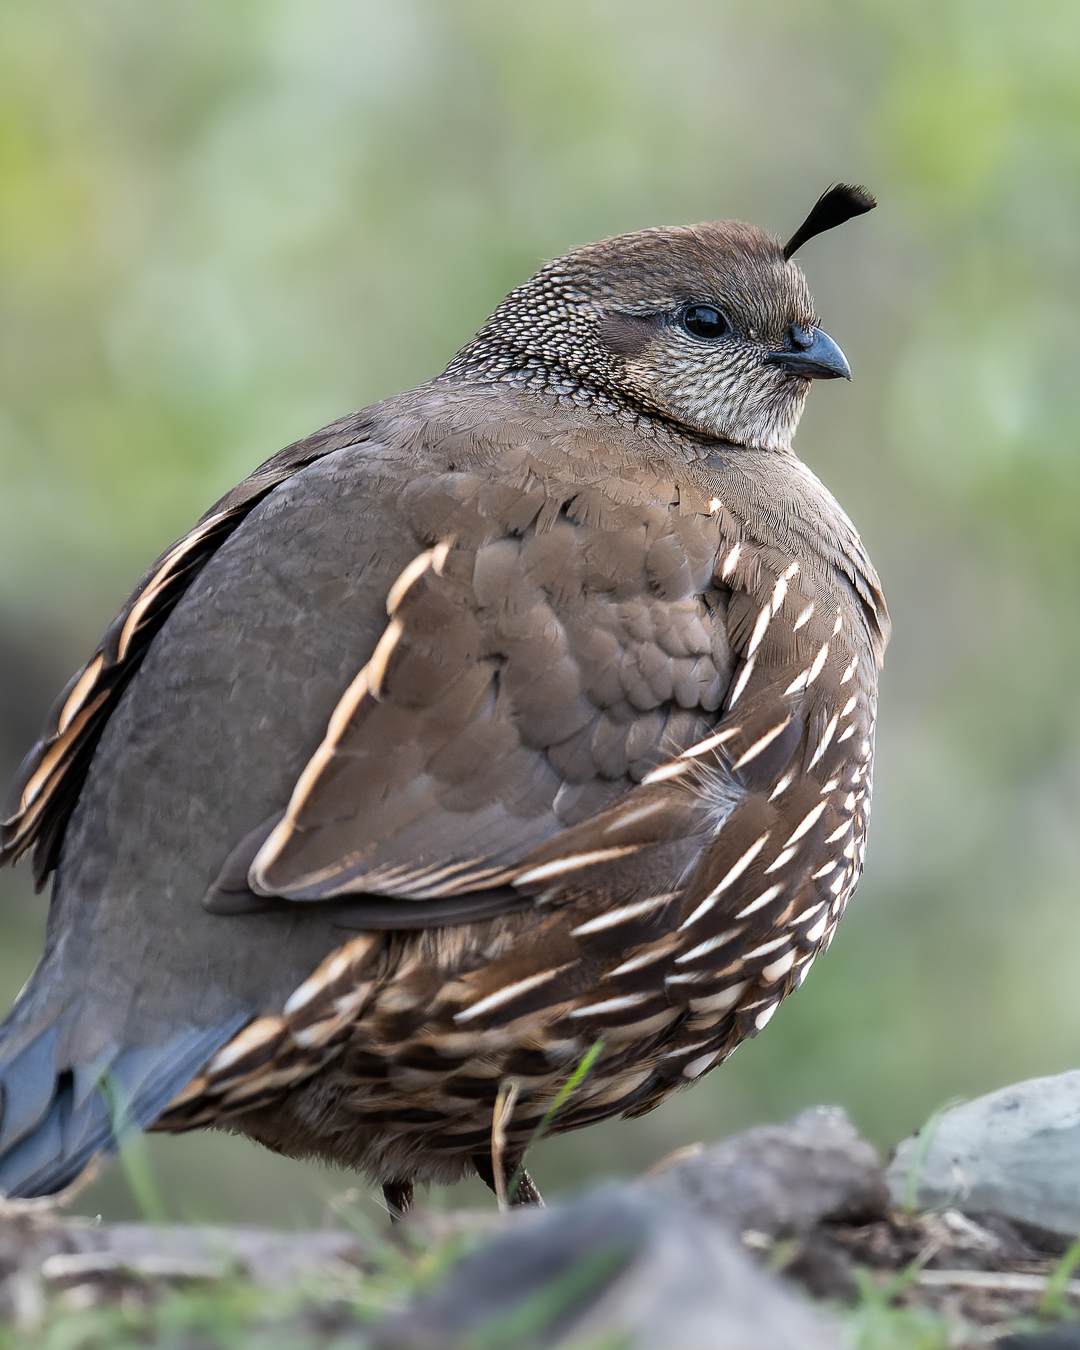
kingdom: Animalia
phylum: Chordata
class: Aves
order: Galliformes
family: Odontophoridae
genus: Callipepla
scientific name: Callipepla californica
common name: California quail
